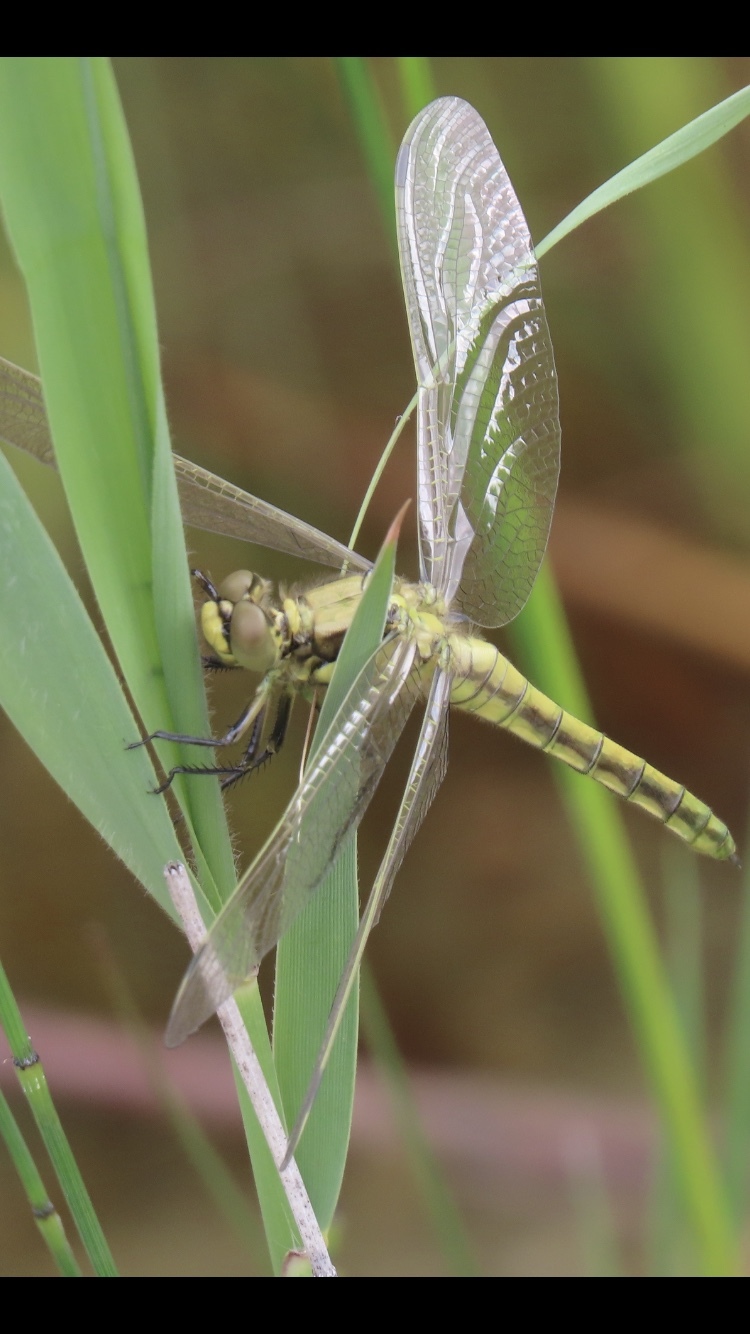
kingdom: Animalia
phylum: Arthropoda
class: Insecta
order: Odonata
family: Libellulidae
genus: Orthetrum
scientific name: Orthetrum cancellatum
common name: Black-tailed skimmer
